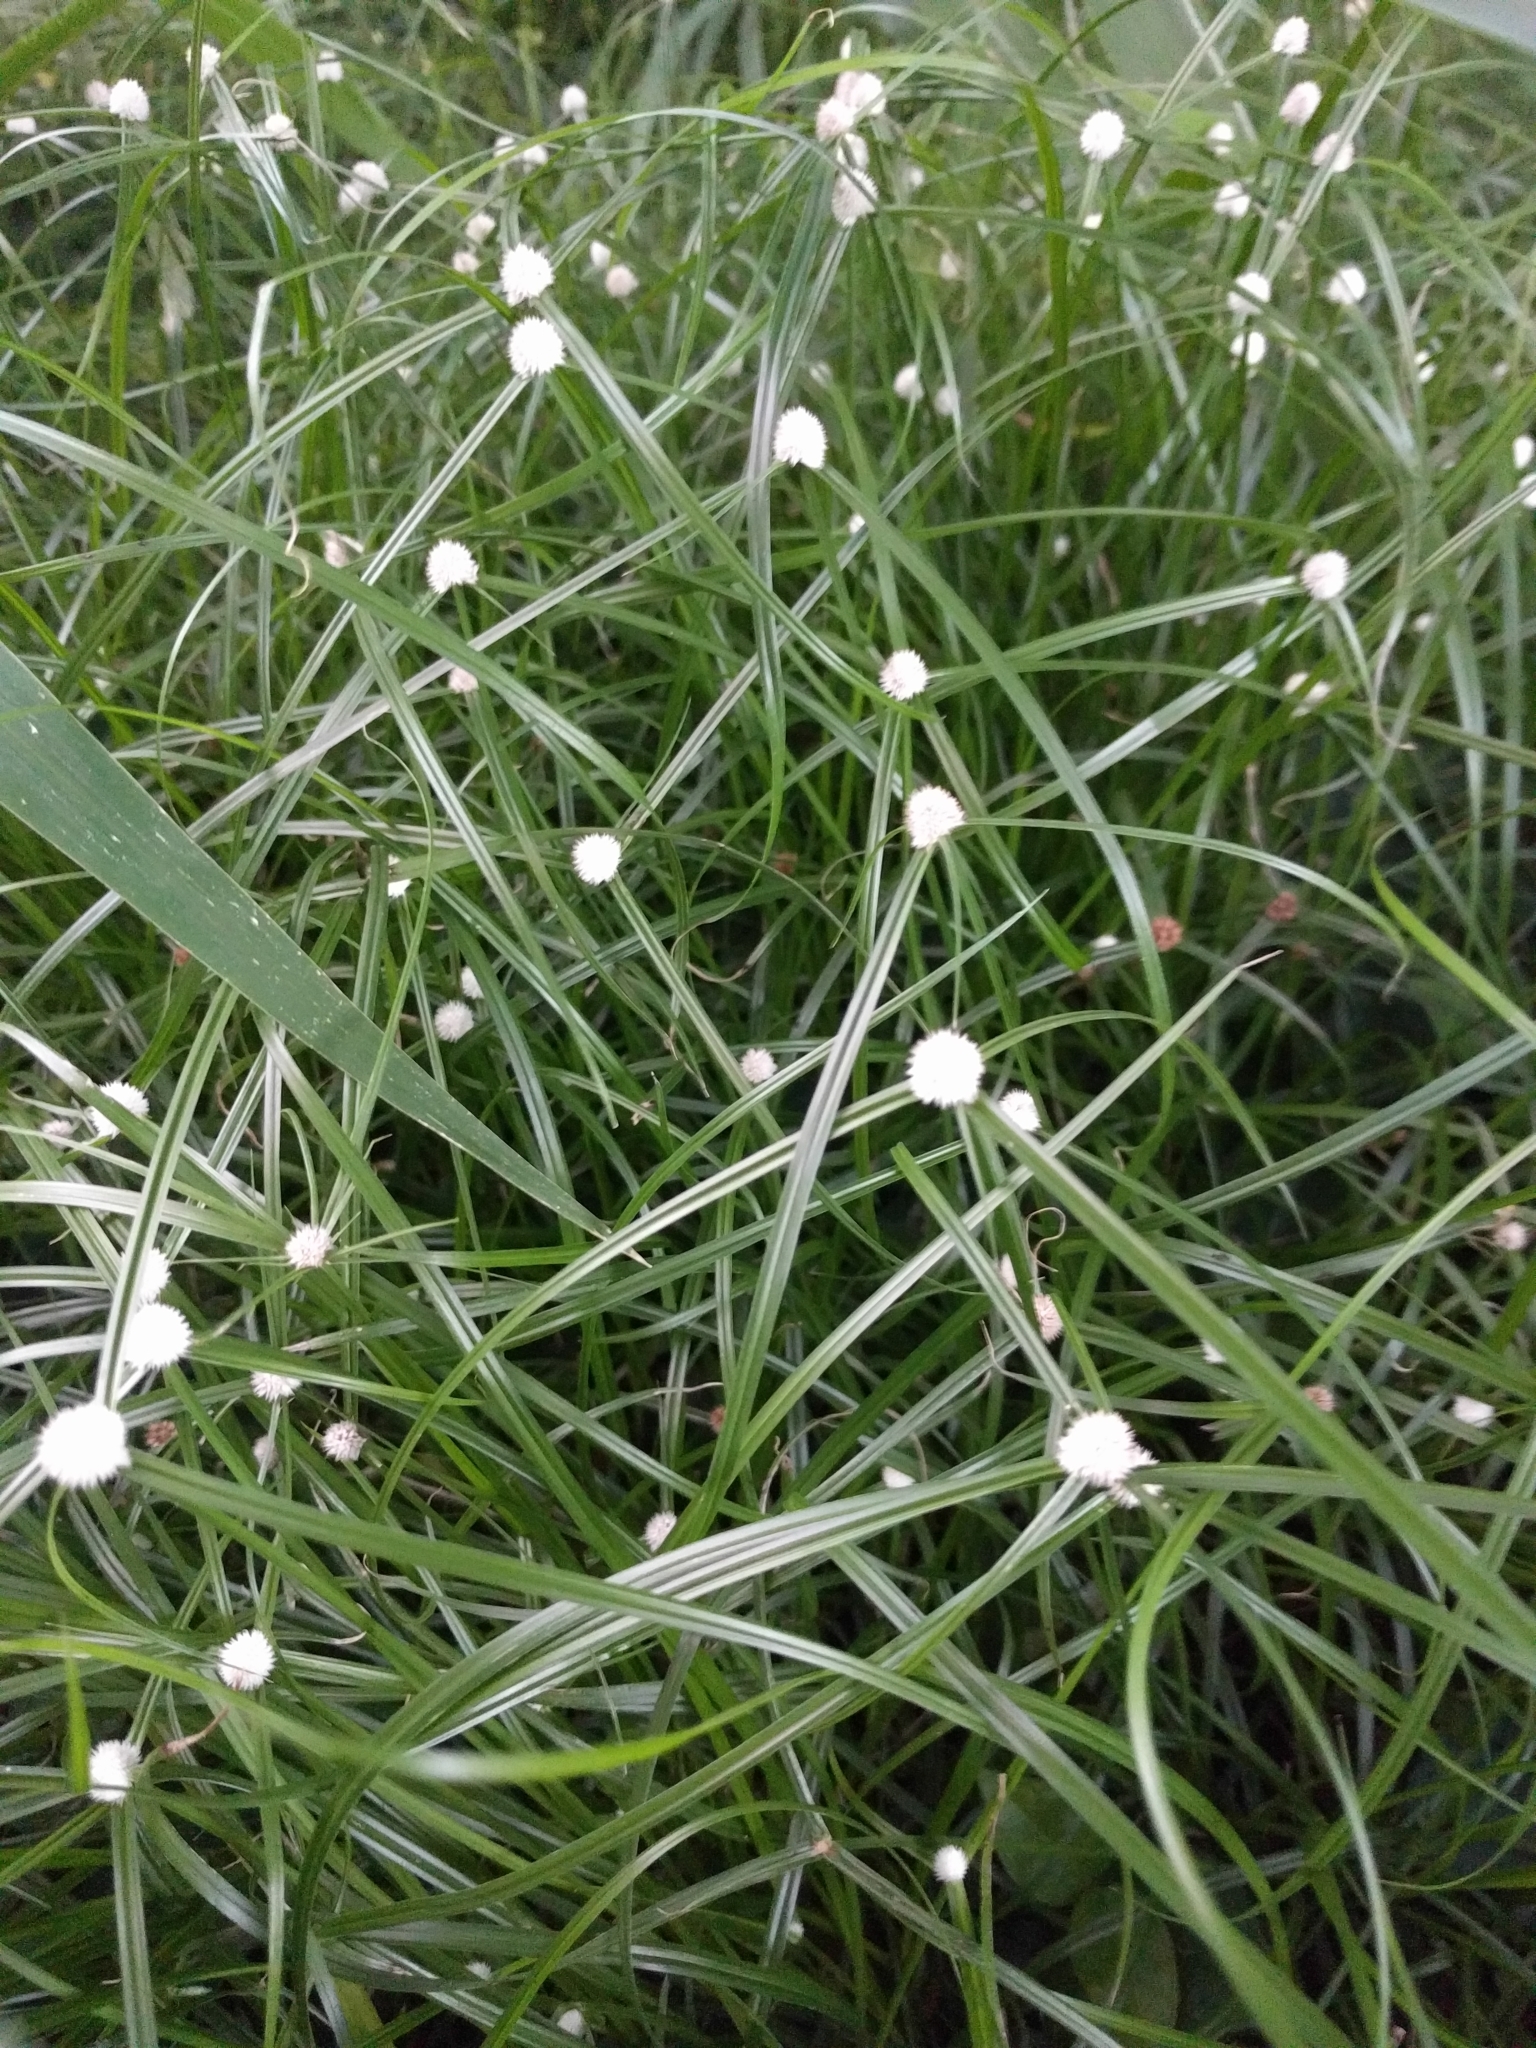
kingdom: Plantae
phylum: Tracheophyta
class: Liliopsida
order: Poales
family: Cyperaceae
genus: Cyperus
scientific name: Cyperus mindorensis
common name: Flatsedge
